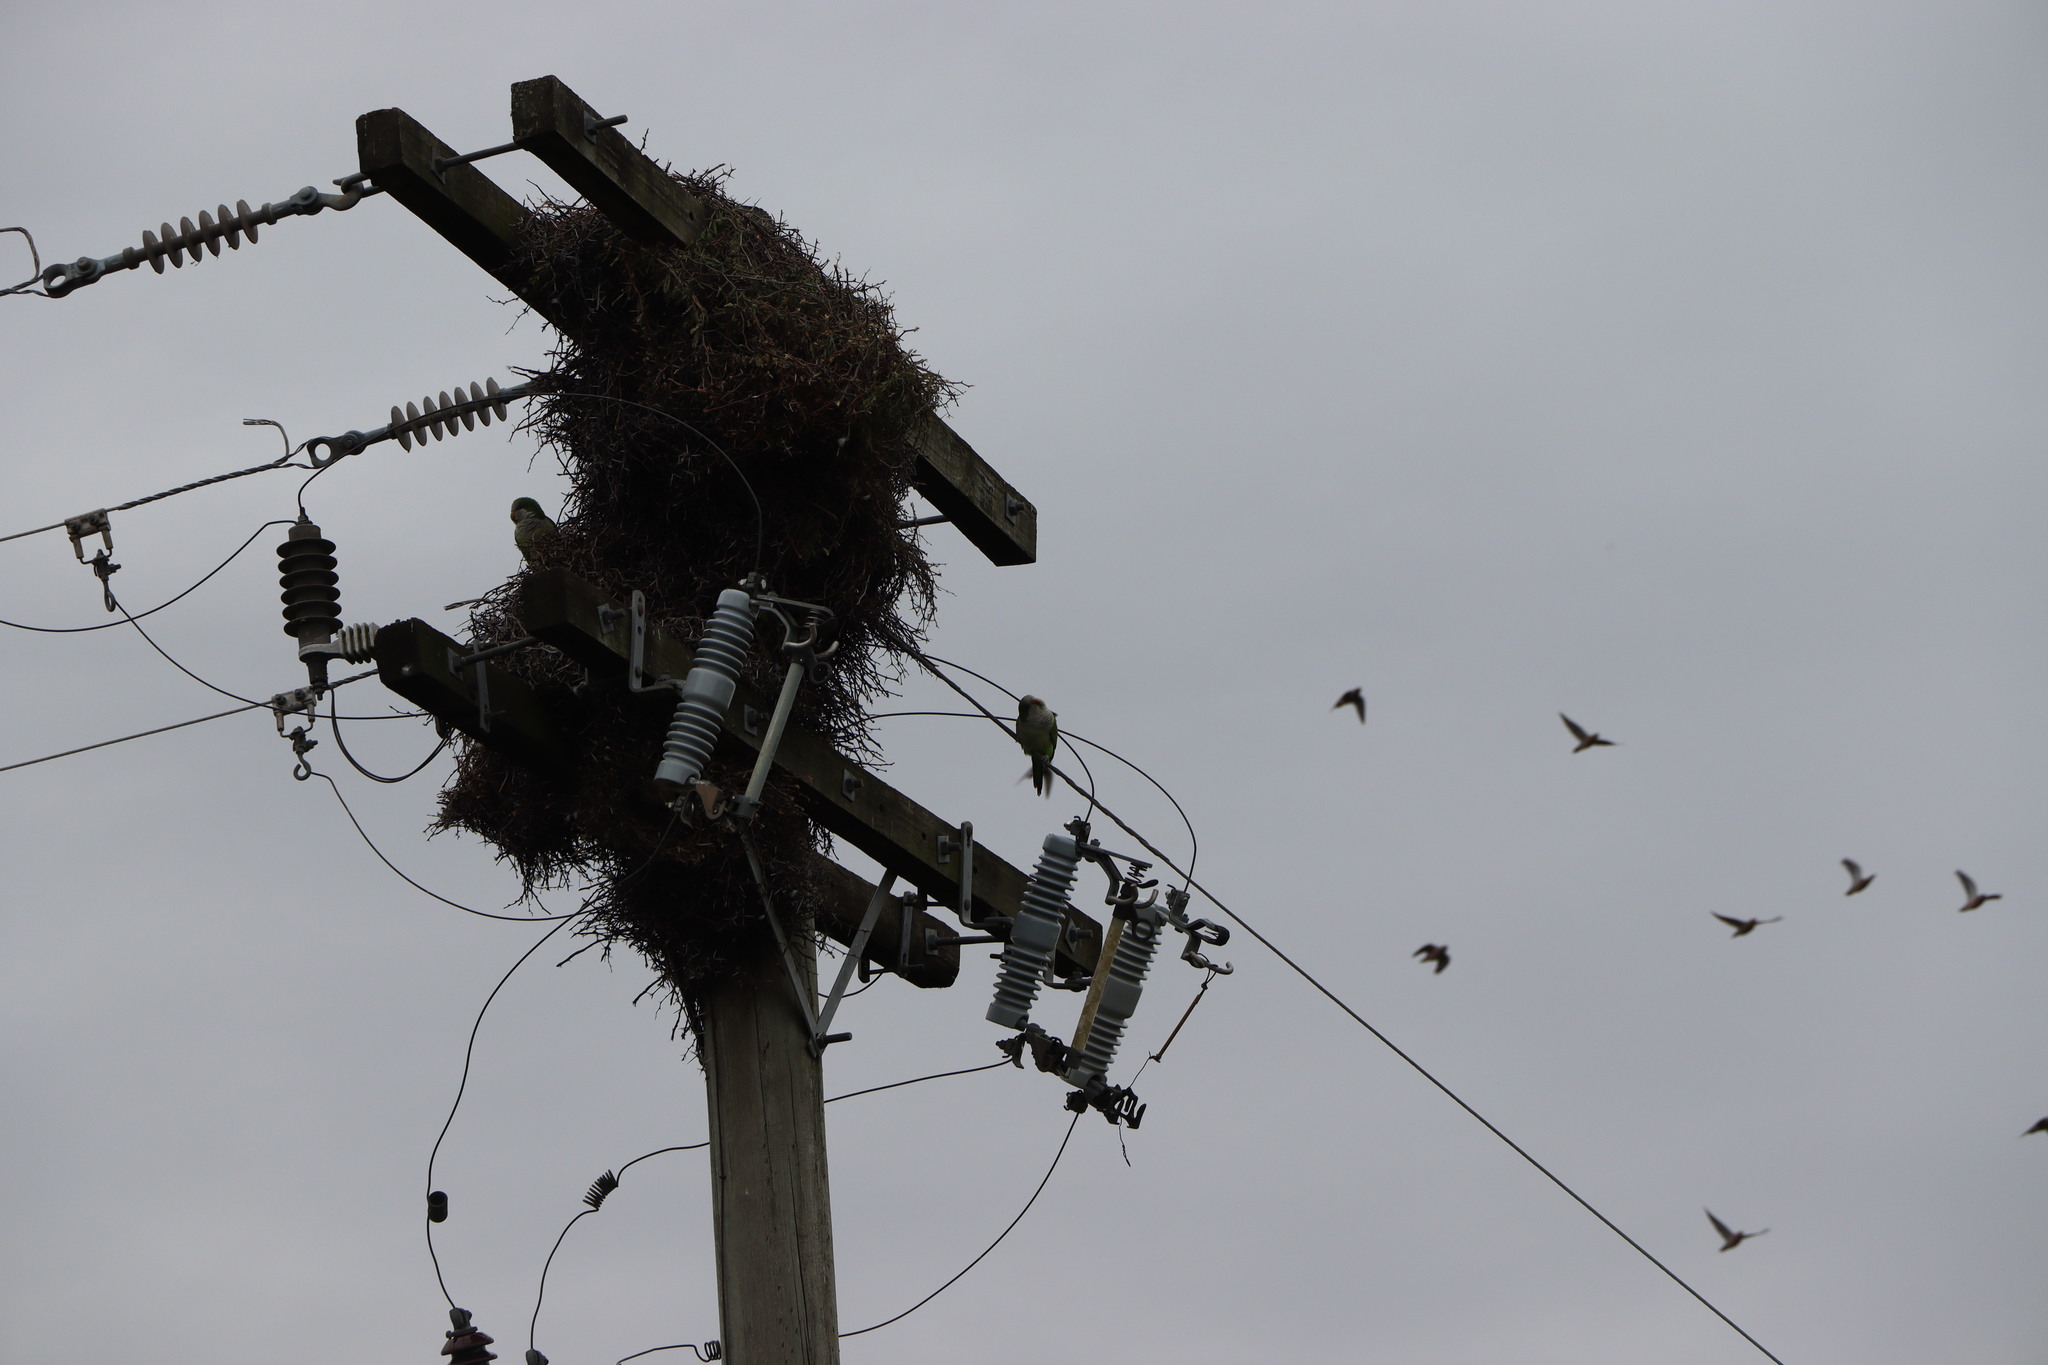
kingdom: Animalia
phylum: Chordata
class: Aves
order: Psittaciformes
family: Psittacidae
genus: Myiopsitta
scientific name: Myiopsitta monachus
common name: Monk parakeet
